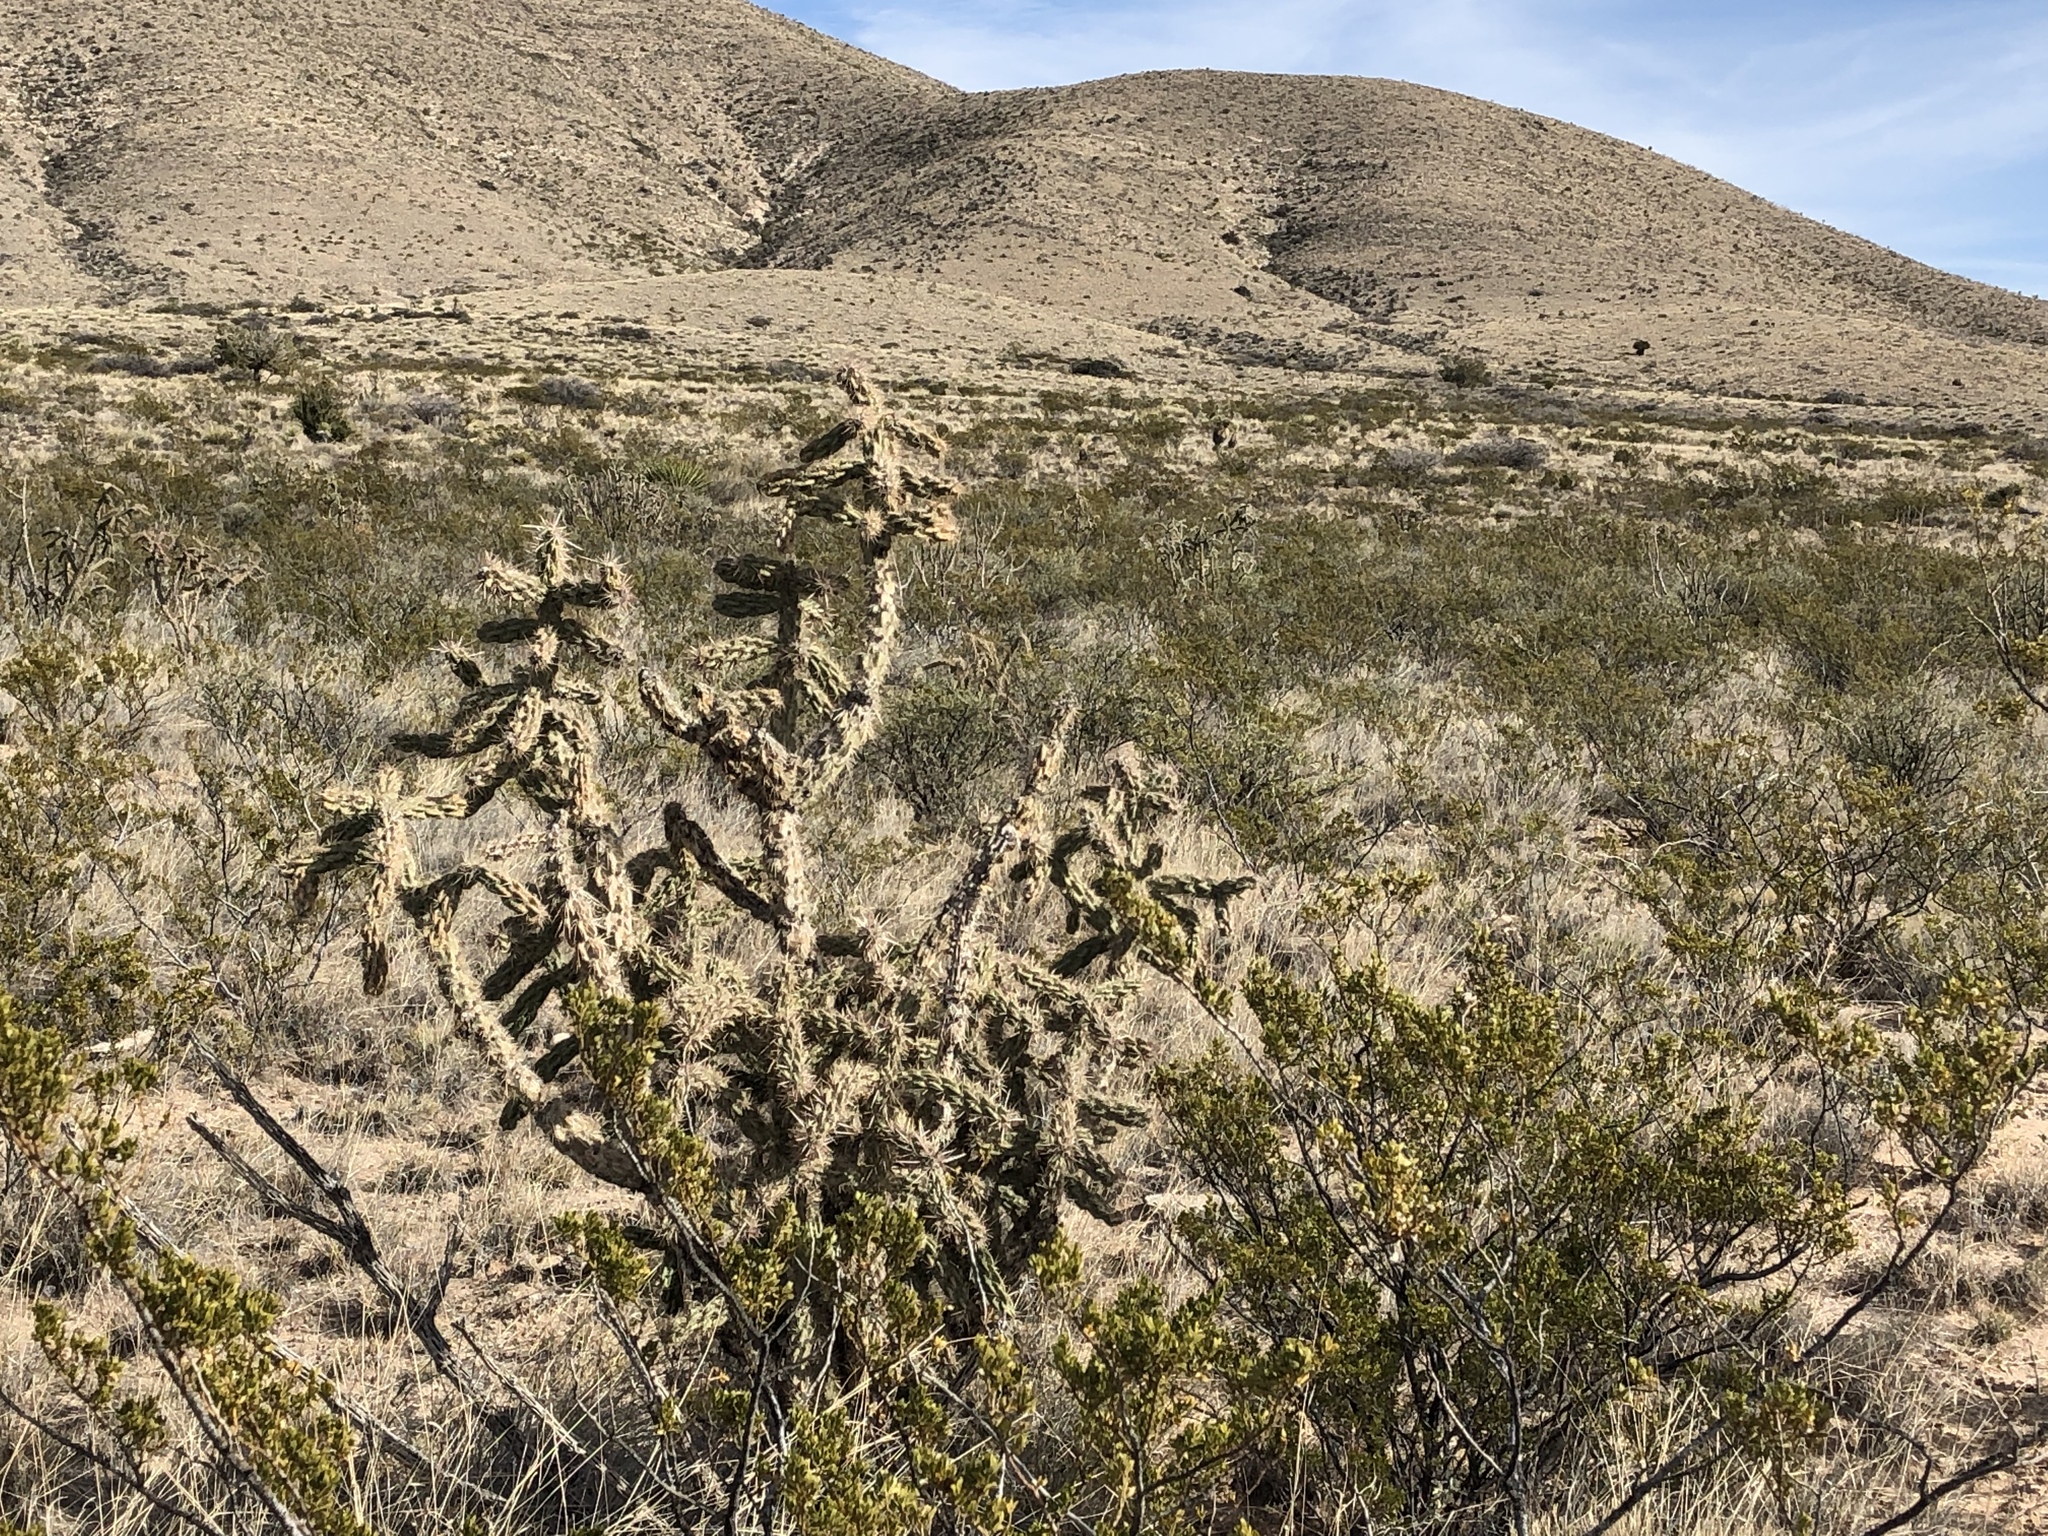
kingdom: Plantae
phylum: Tracheophyta
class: Magnoliopsida
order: Caryophyllales
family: Cactaceae
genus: Cylindropuntia
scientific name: Cylindropuntia imbricata
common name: Candelabrum cactus
